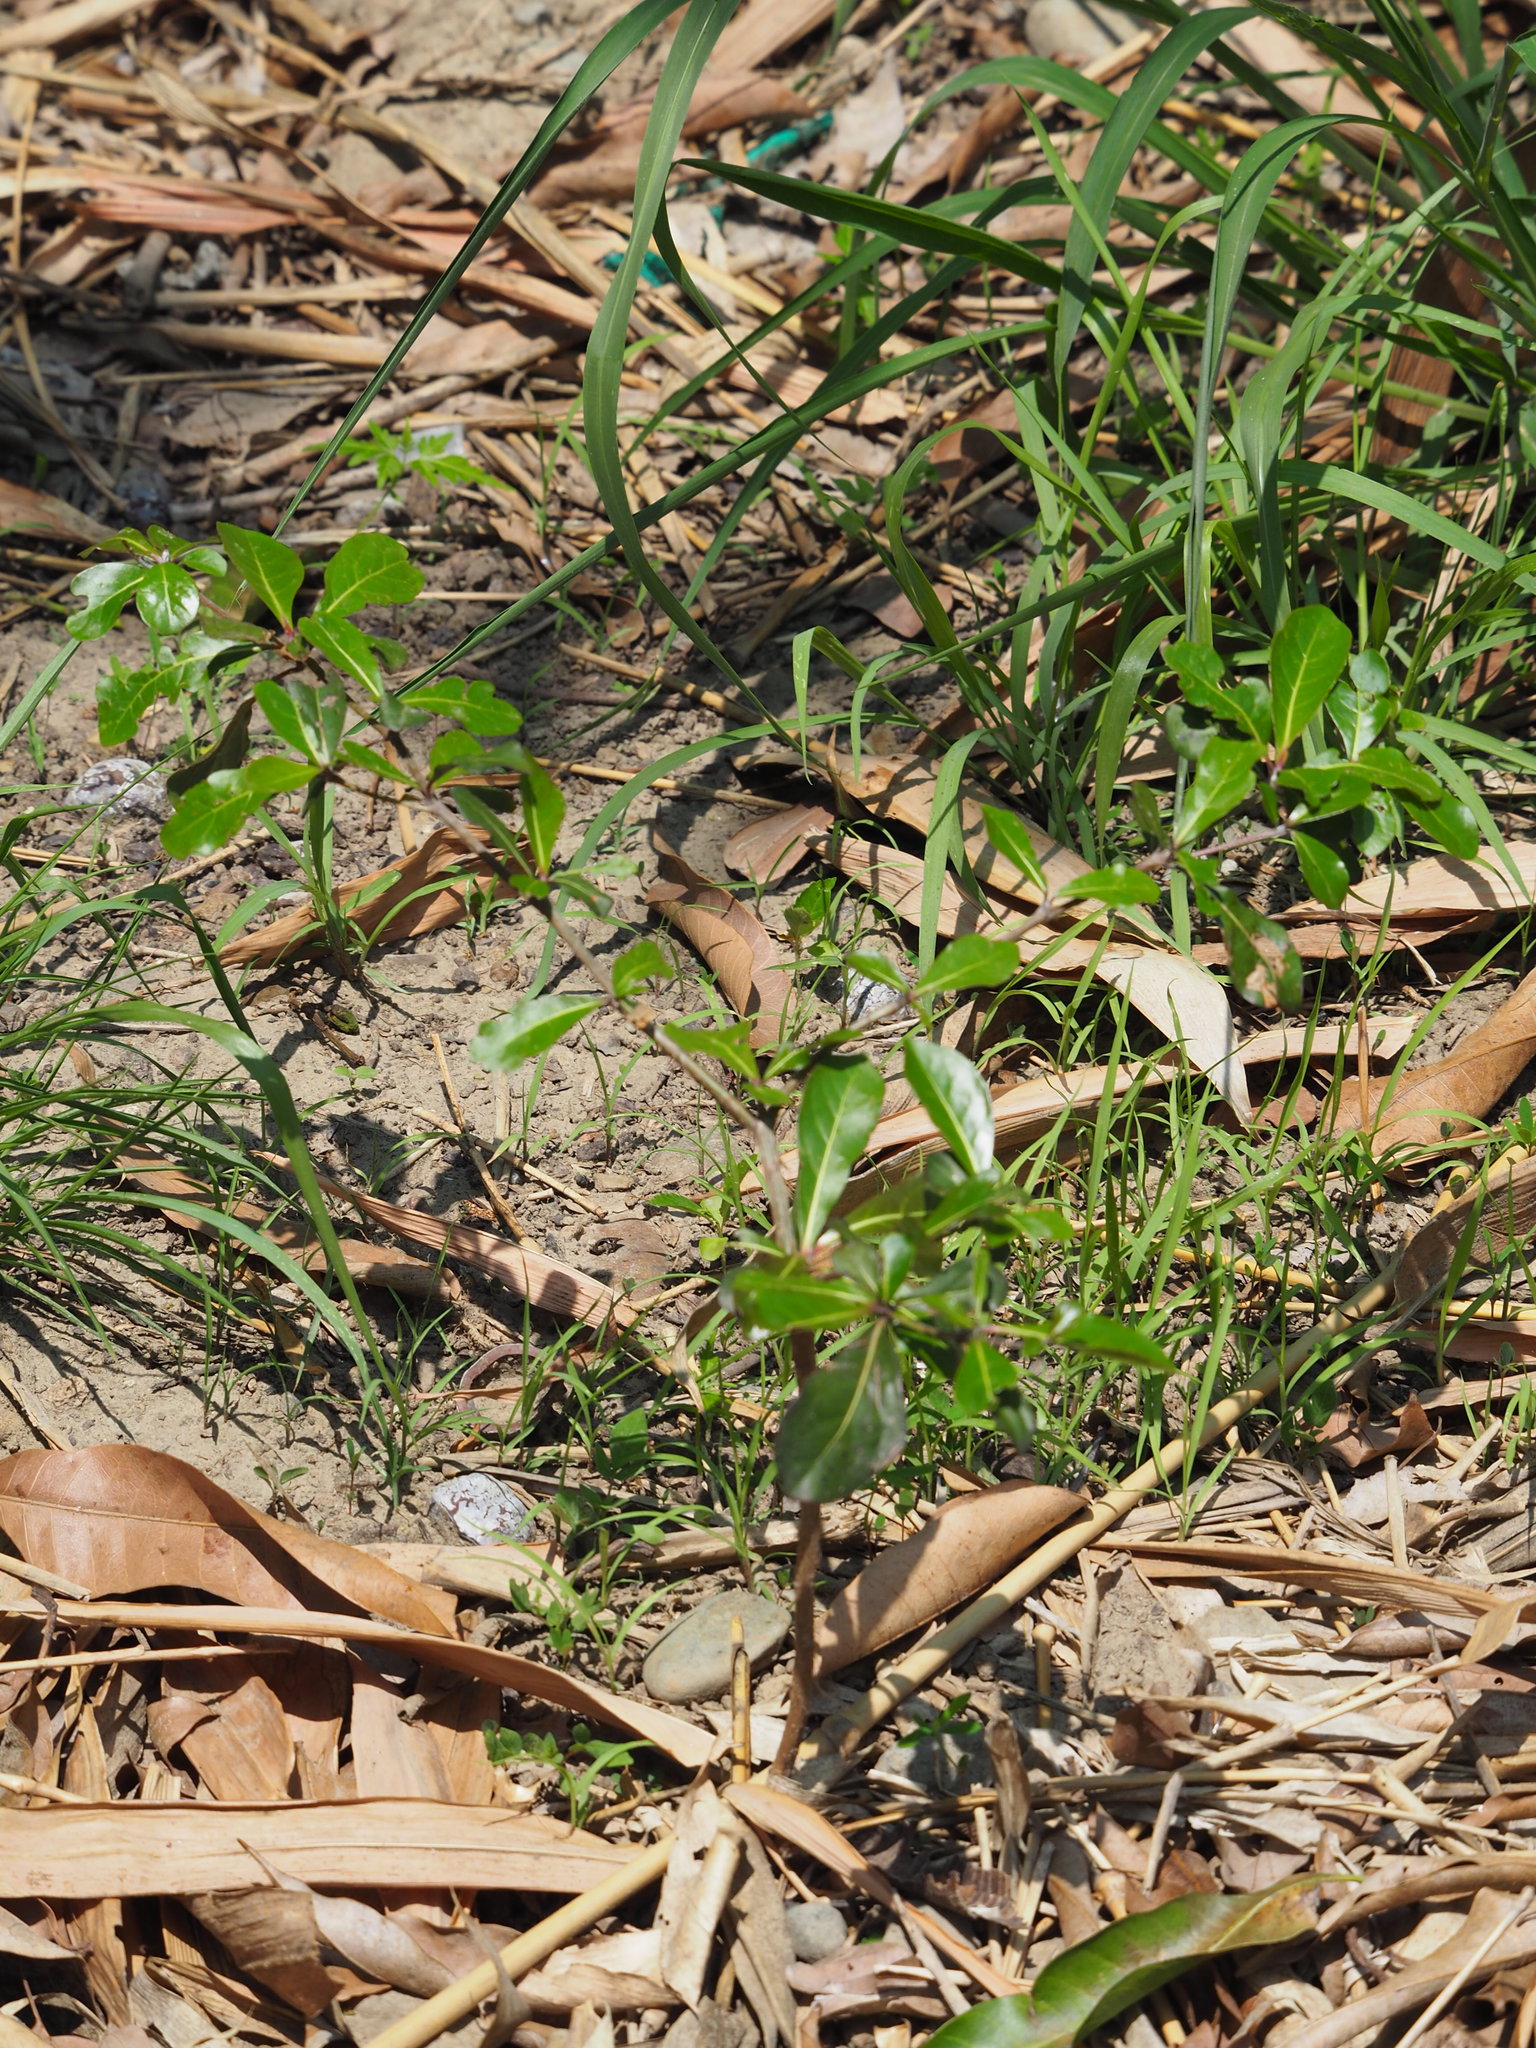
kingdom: Plantae
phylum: Tracheophyta
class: Magnoliopsida
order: Myrtales
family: Combretaceae
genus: Terminalia
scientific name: Terminalia neotaliala
